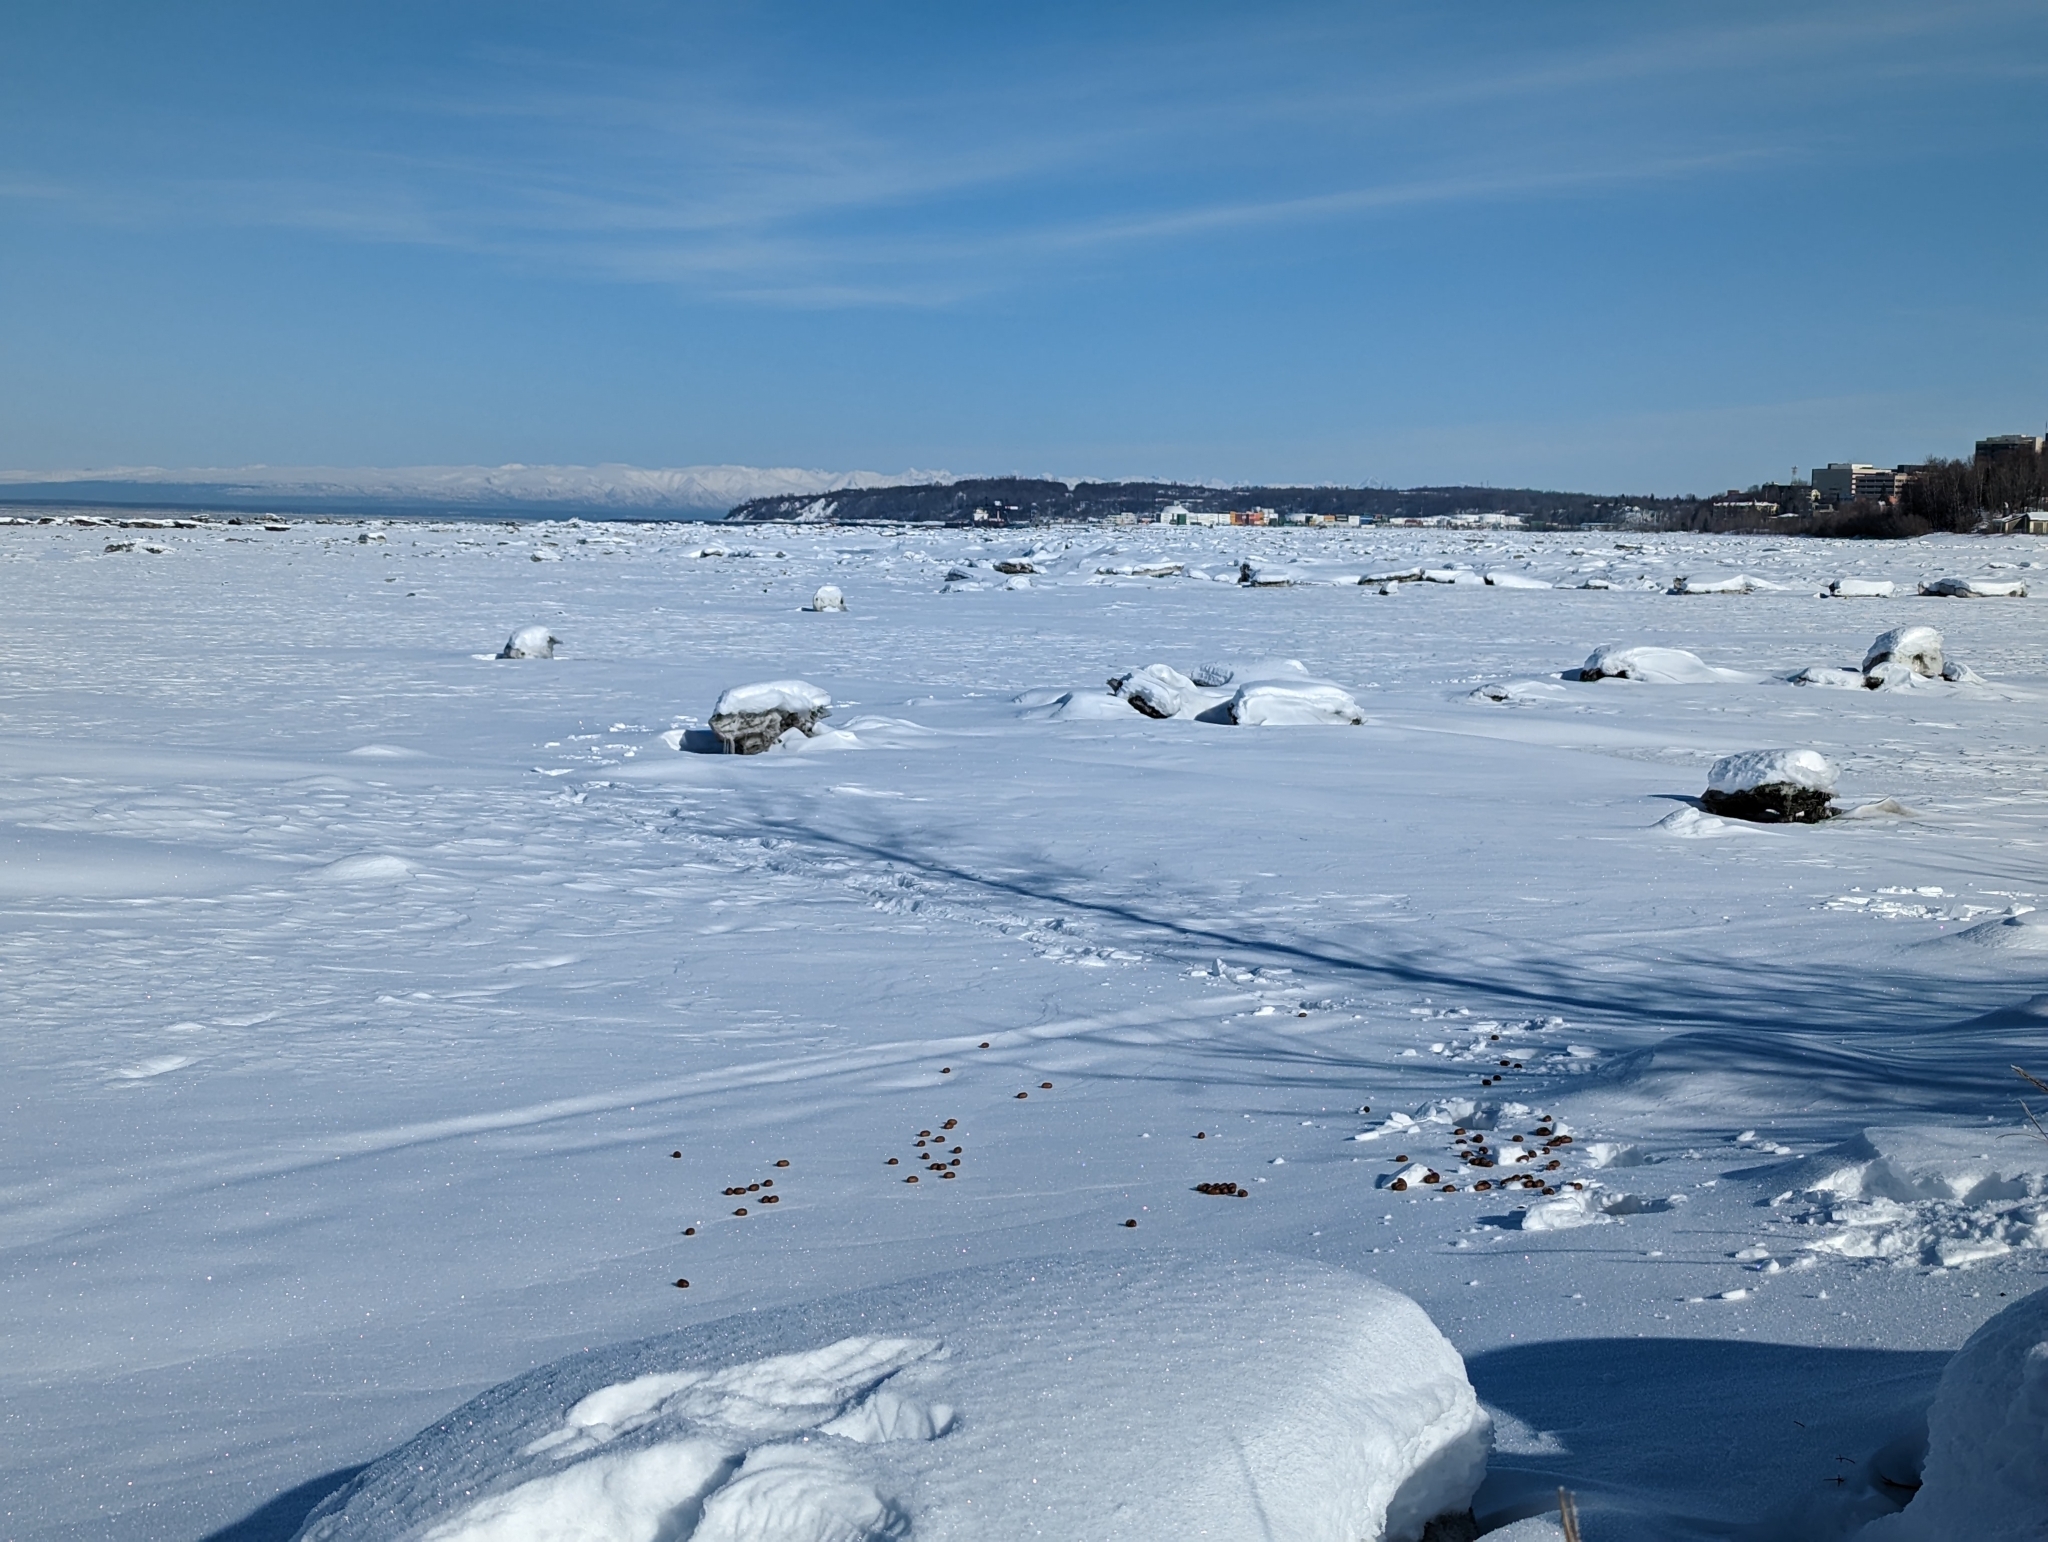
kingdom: Animalia
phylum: Chordata
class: Mammalia
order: Artiodactyla
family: Cervidae
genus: Alces
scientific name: Alces alces
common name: Moose
